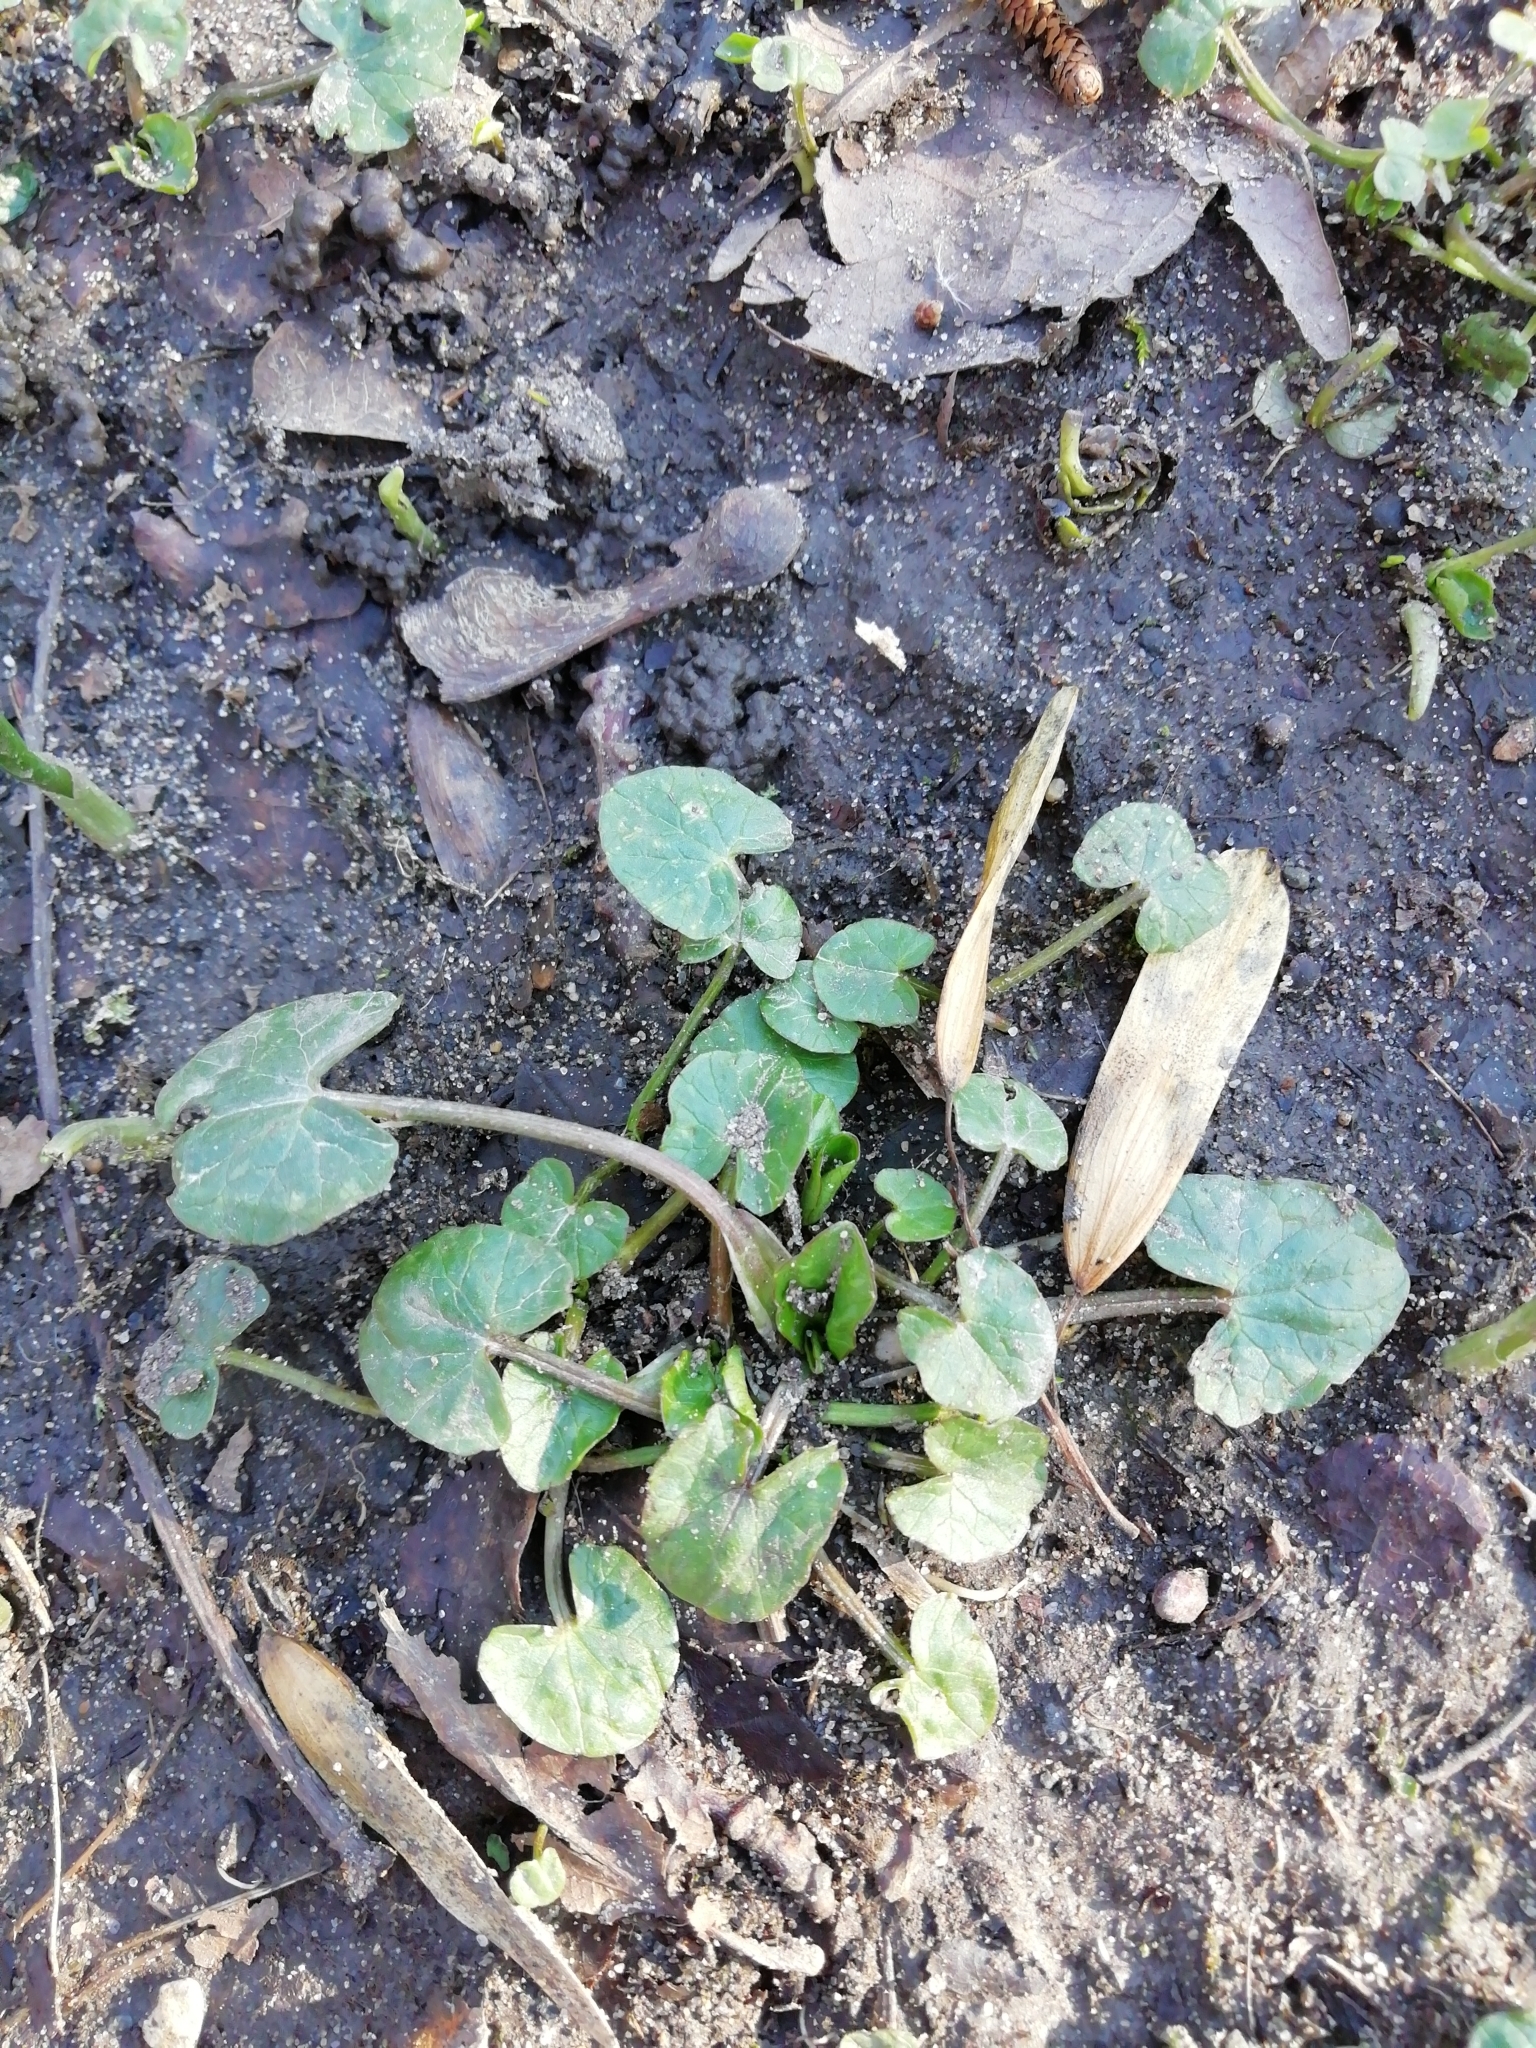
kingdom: Plantae
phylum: Tracheophyta
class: Magnoliopsida
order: Ranunculales
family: Ranunculaceae
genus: Ficaria
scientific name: Ficaria verna
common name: Lesser celandine
